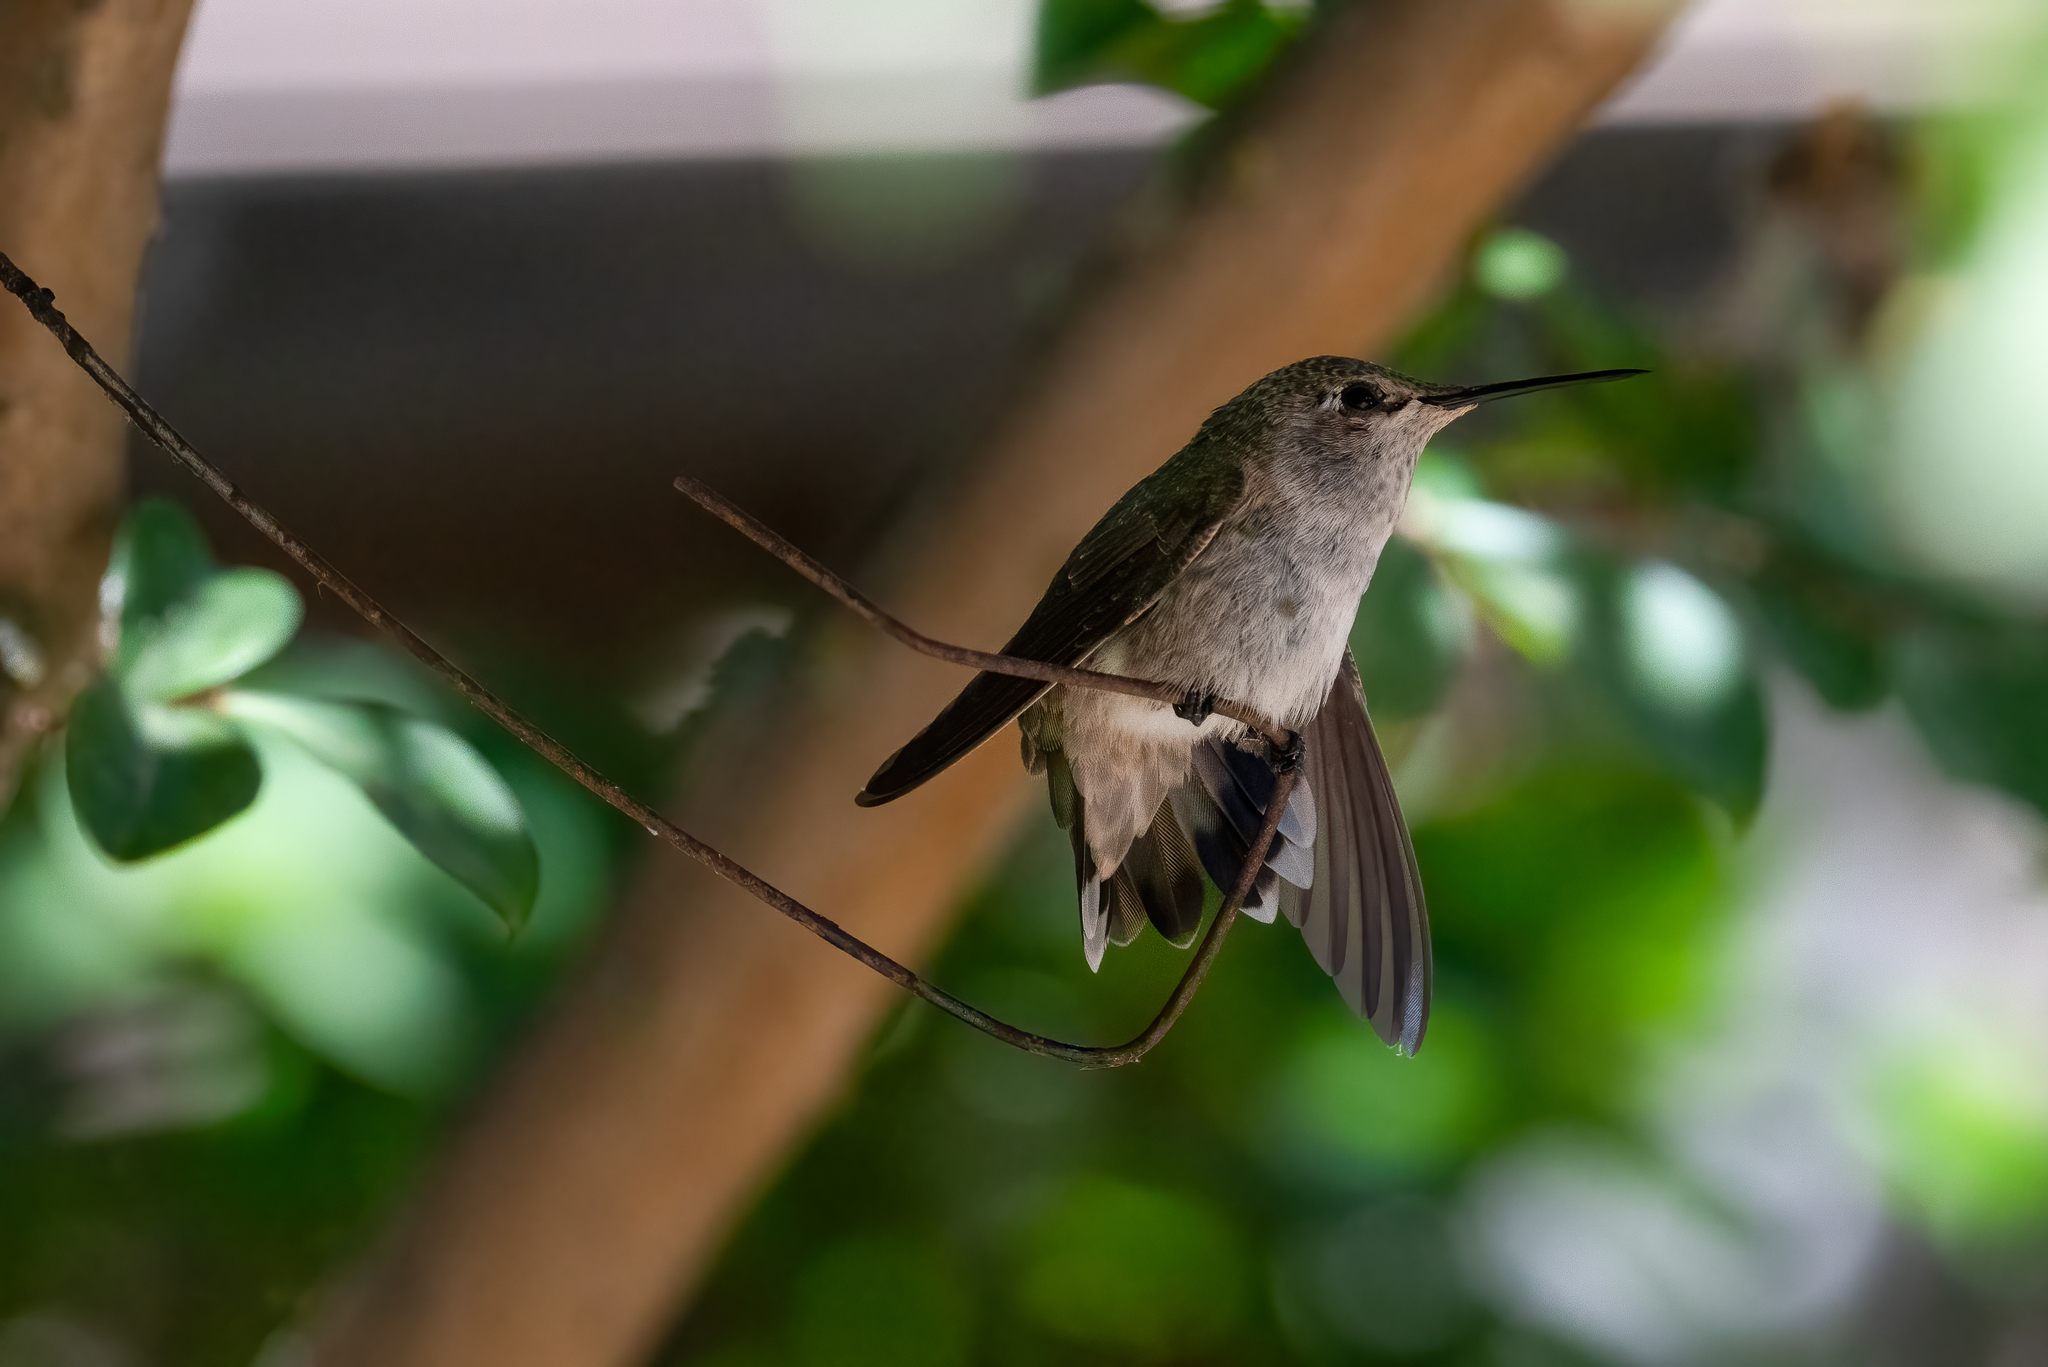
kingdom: Animalia
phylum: Chordata
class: Aves
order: Apodiformes
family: Trochilidae
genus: Calypte
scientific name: Calypte anna
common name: Anna's hummingbird
